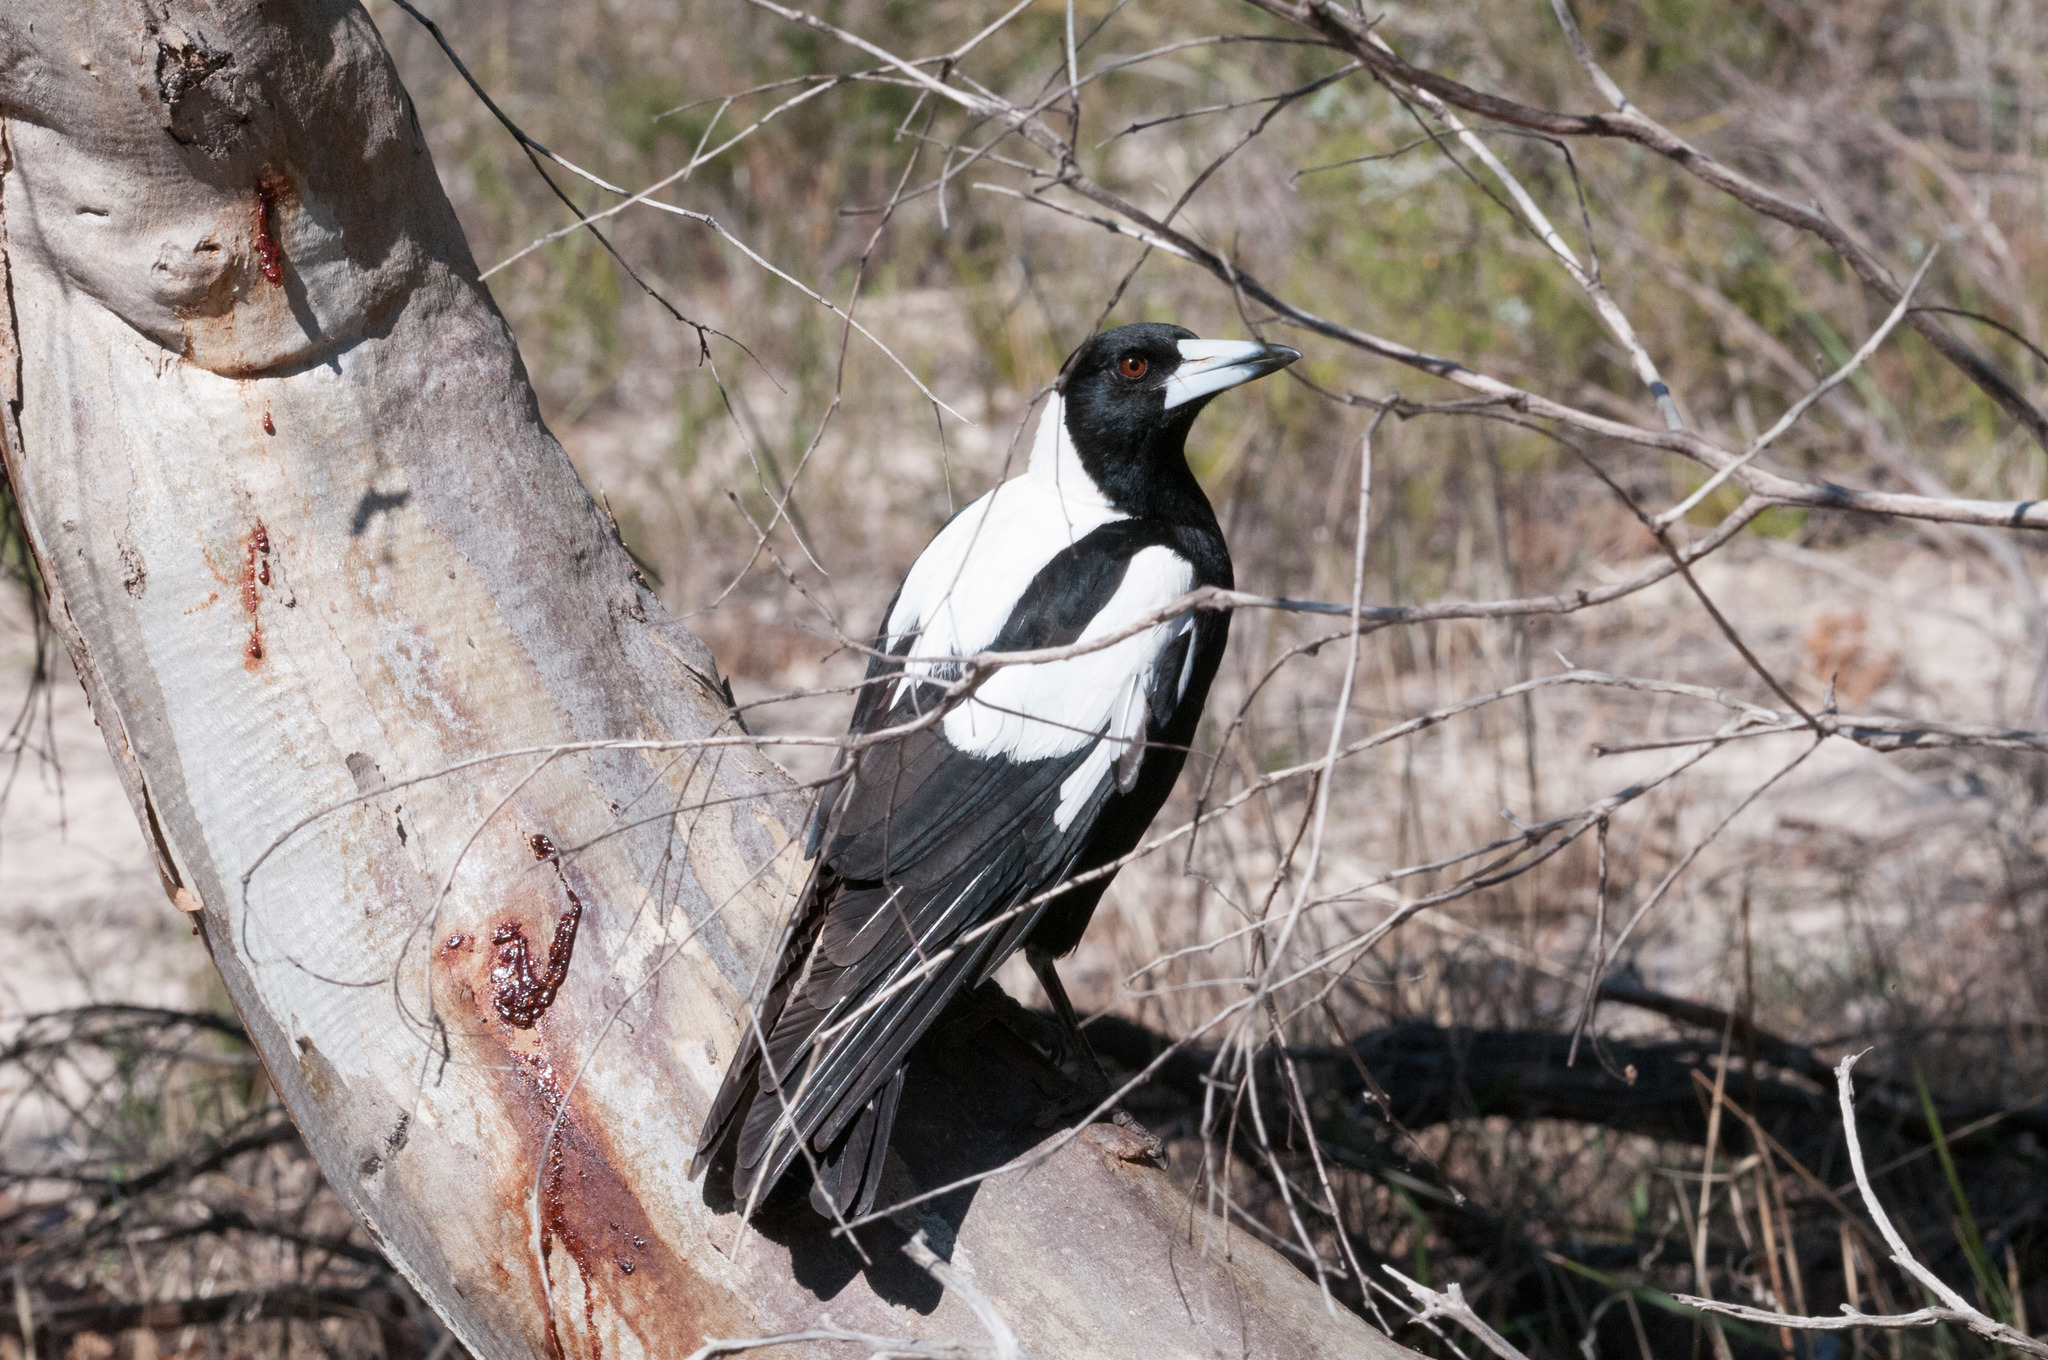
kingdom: Animalia
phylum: Chordata
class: Aves
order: Passeriformes
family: Cracticidae
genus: Gymnorhina
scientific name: Gymnorhina tibicen
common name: Australian magpie
